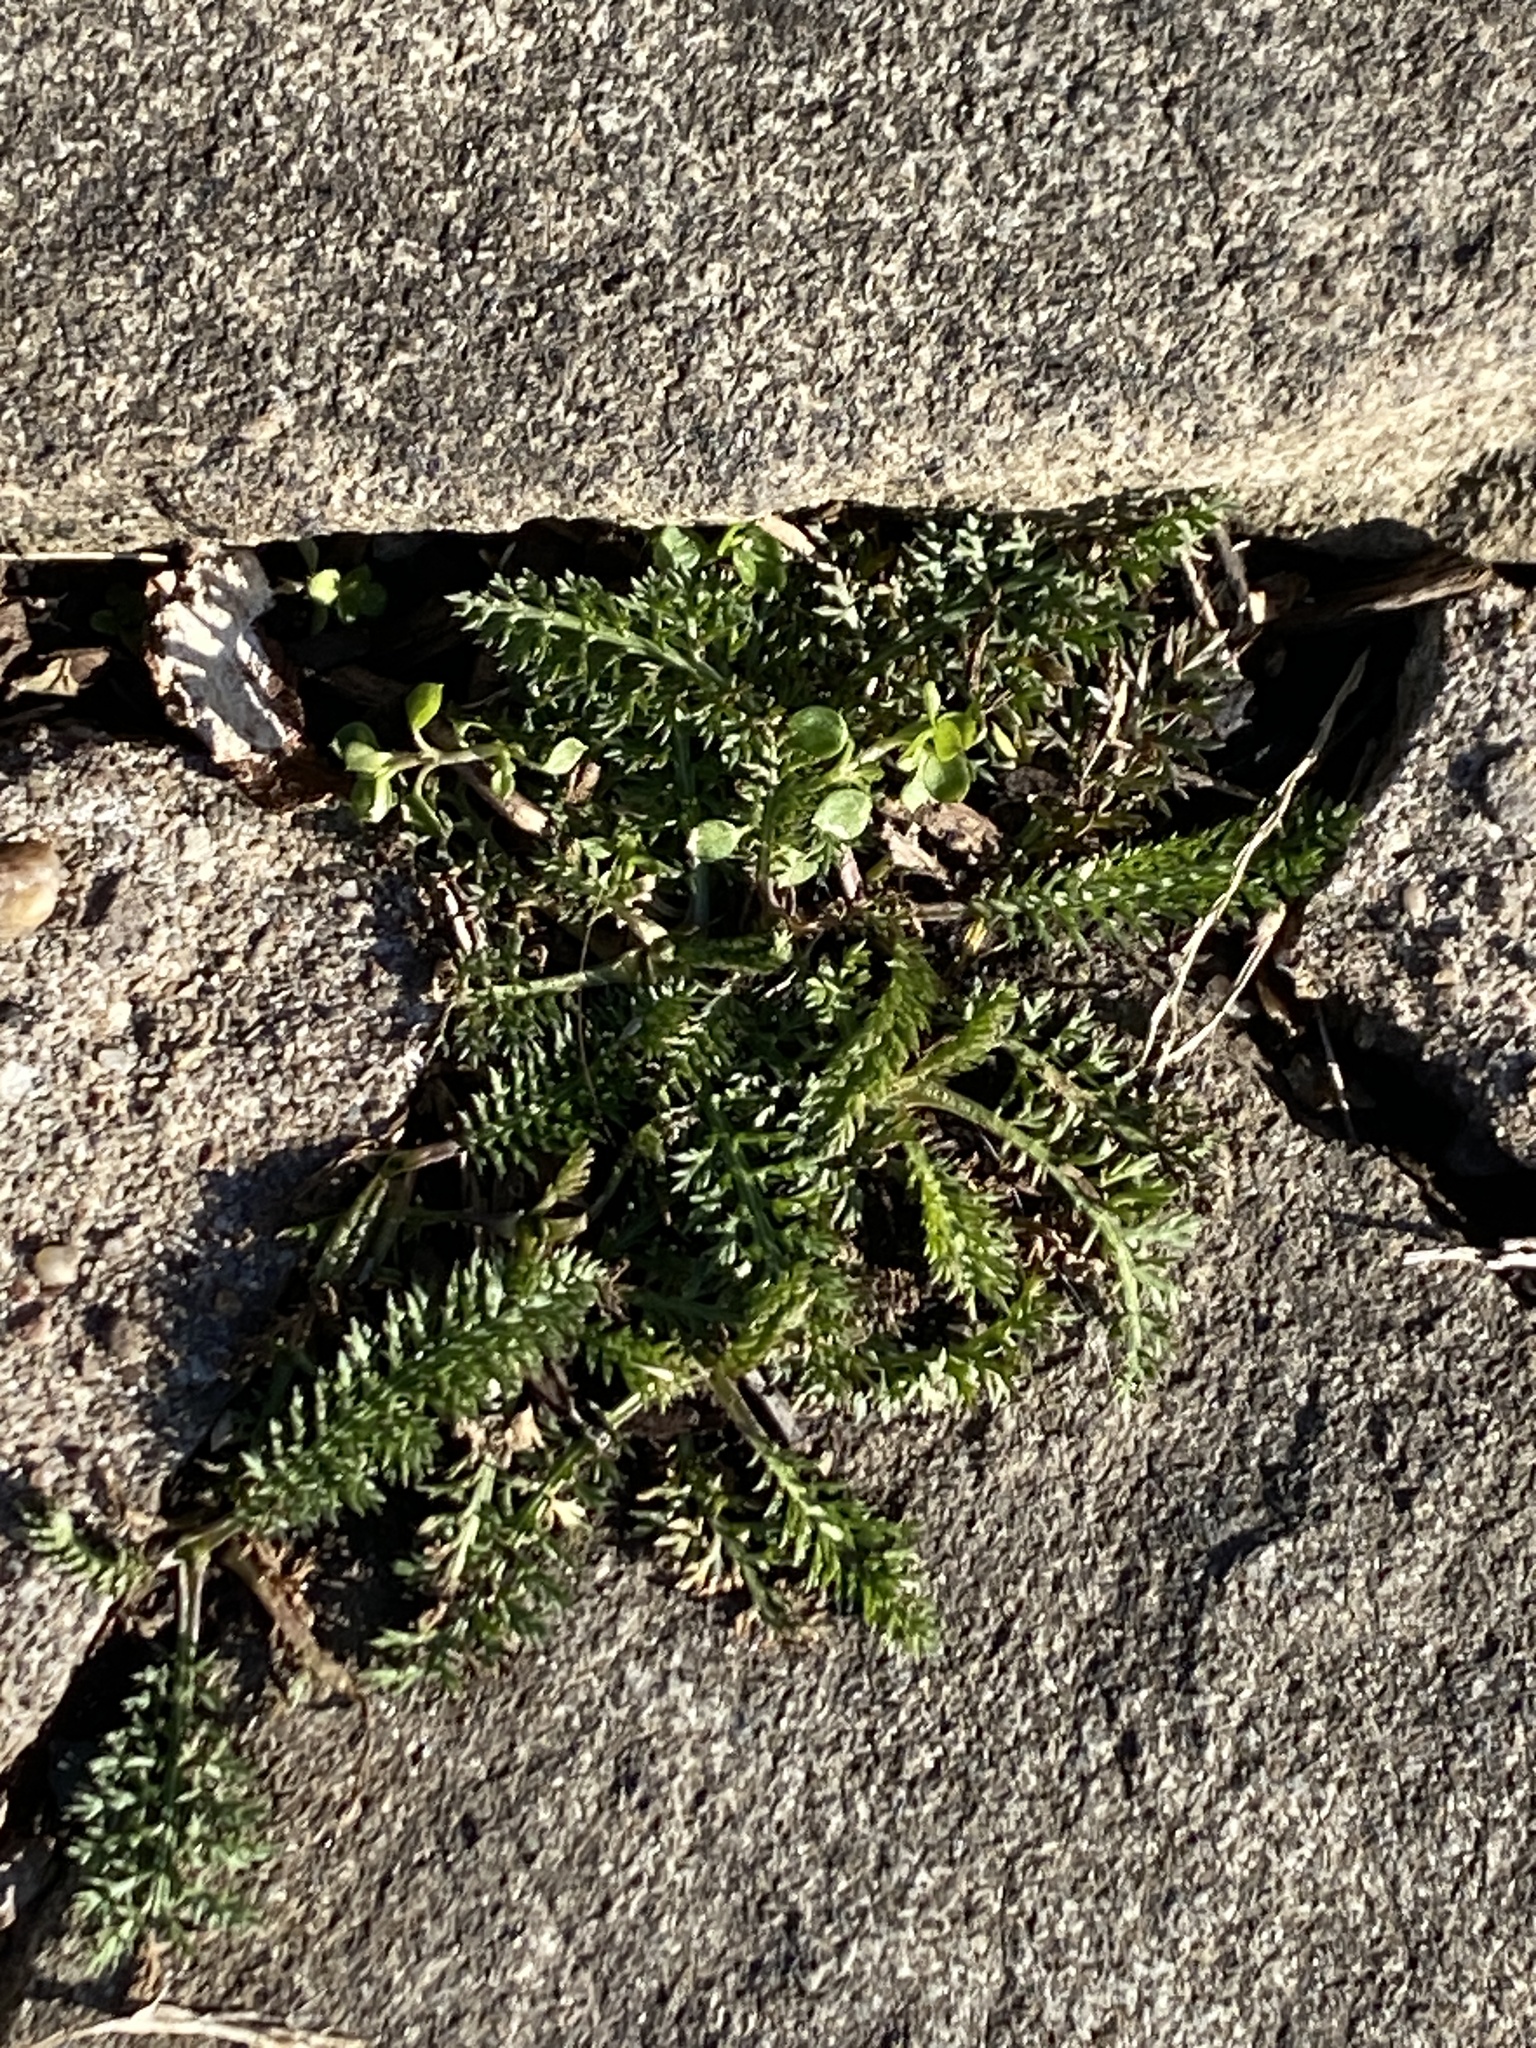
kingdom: Plantae
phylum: Tracheophyta
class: Magnoliopsida
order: Asterales
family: Asteraceae
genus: Achillea
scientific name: Achillea millefolium
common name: Yarrow
